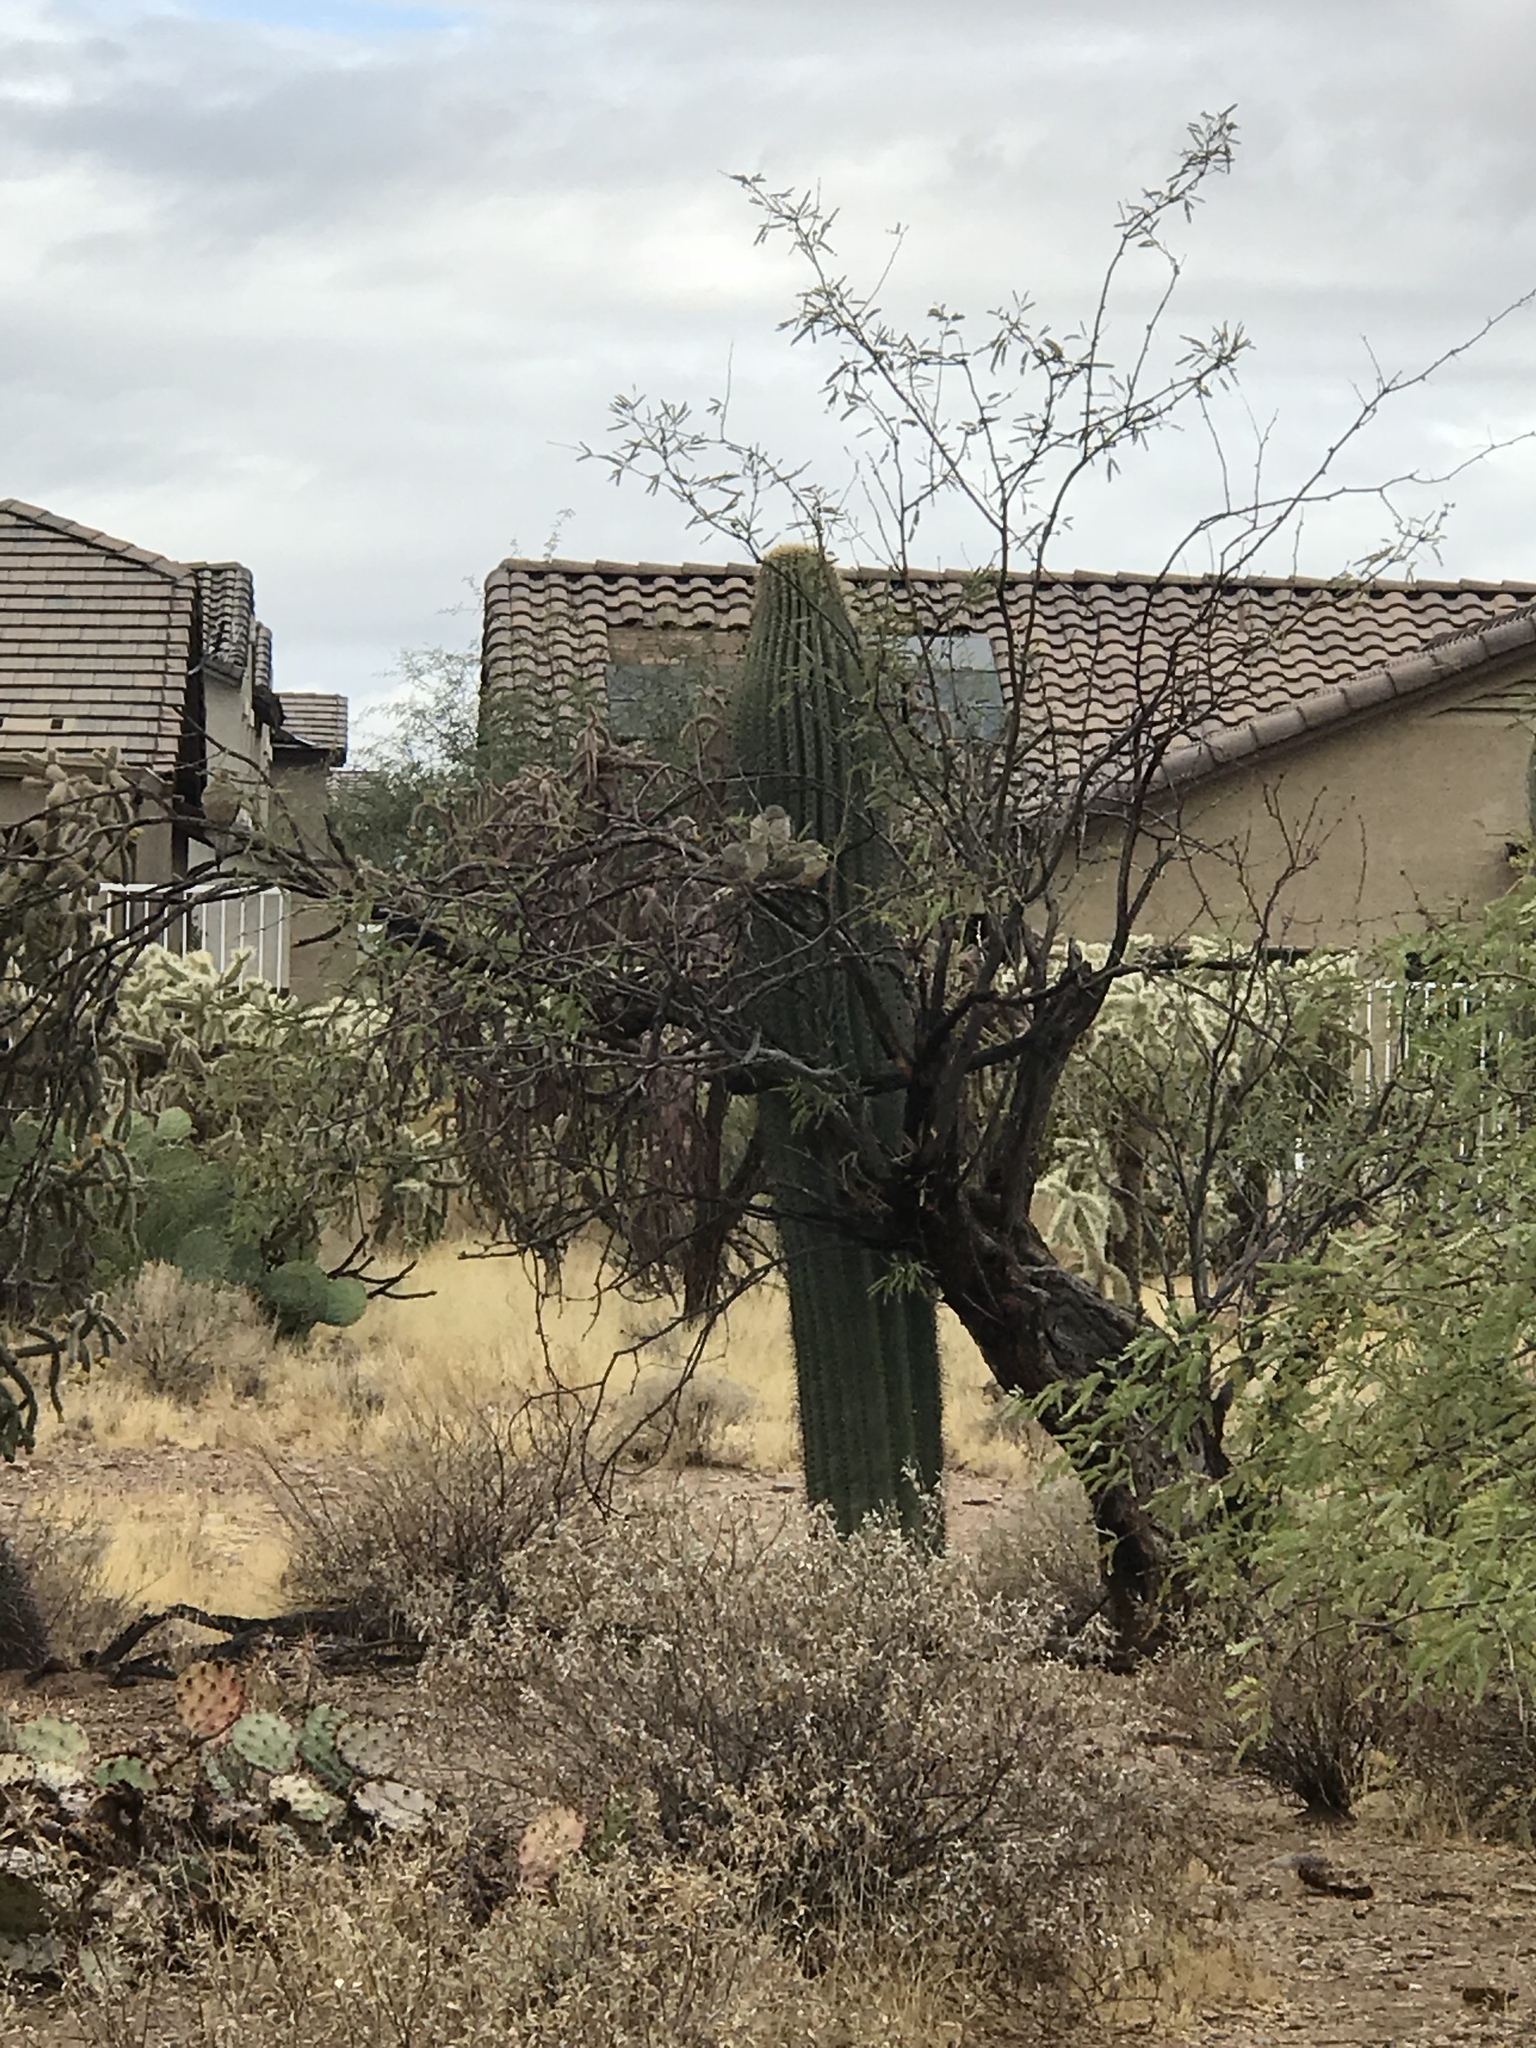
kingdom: Plantae
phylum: Tracheophyta
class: Magnoliopsida
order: Caryophyllales
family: Cactaceae
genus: Carnegiea
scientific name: Carnegiea gigantea
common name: Saguaro
